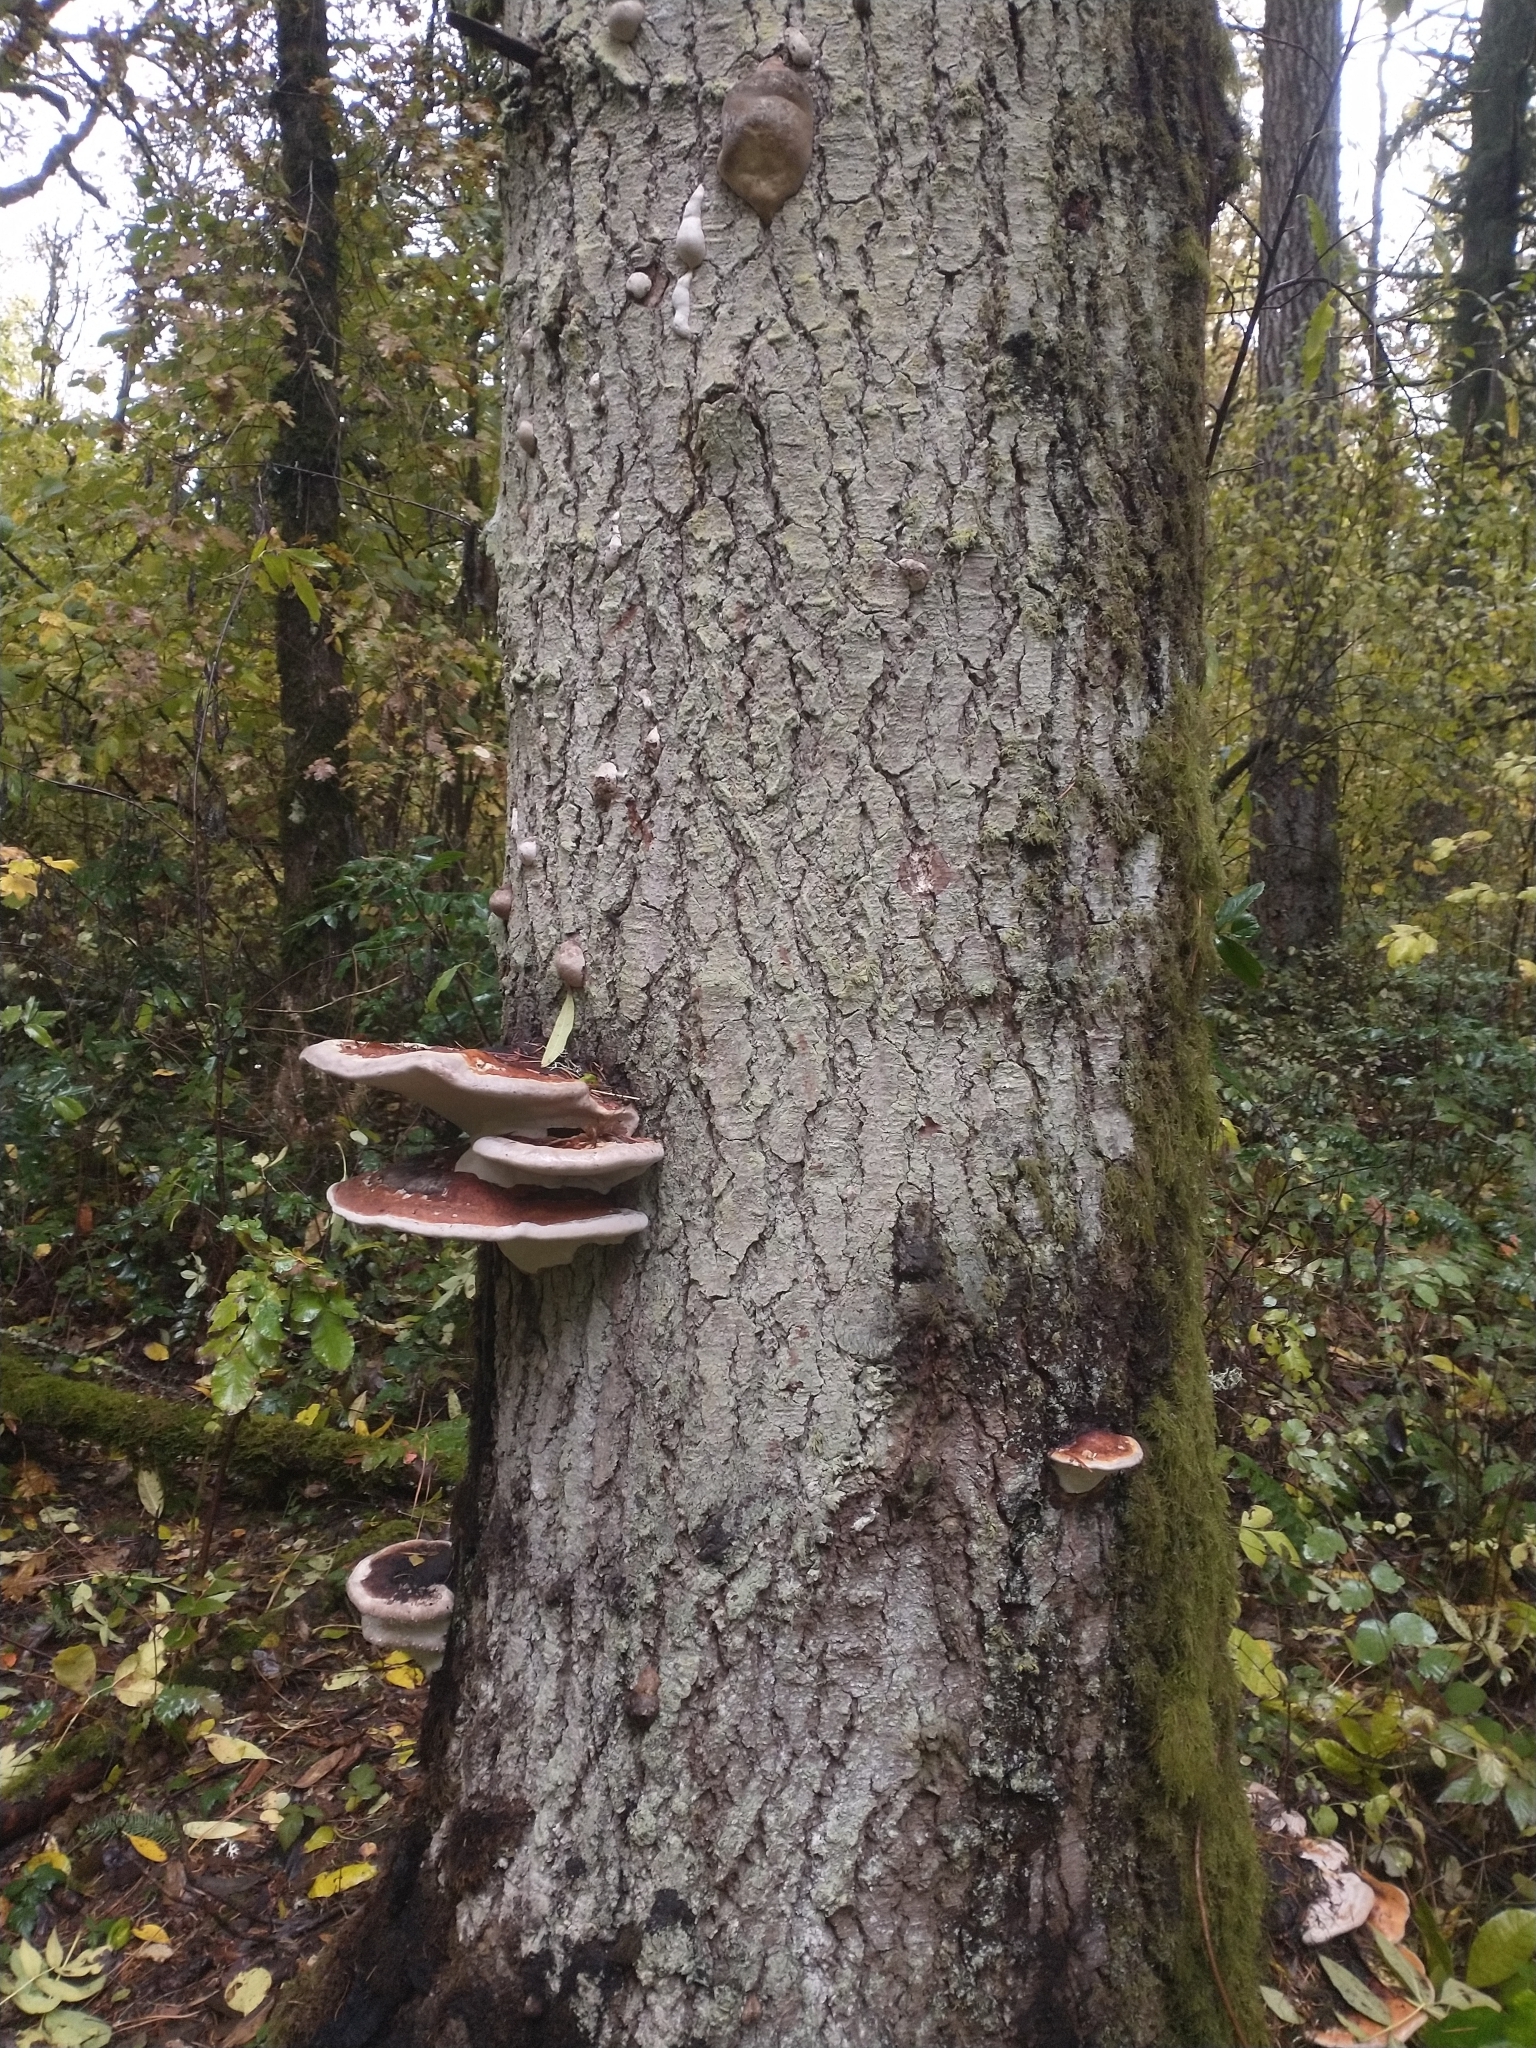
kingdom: Plantae
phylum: Tracheophyta
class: Pinopsida
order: Pinales
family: Pinaceae
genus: Abies
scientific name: Abies grandis
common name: Giant fir
